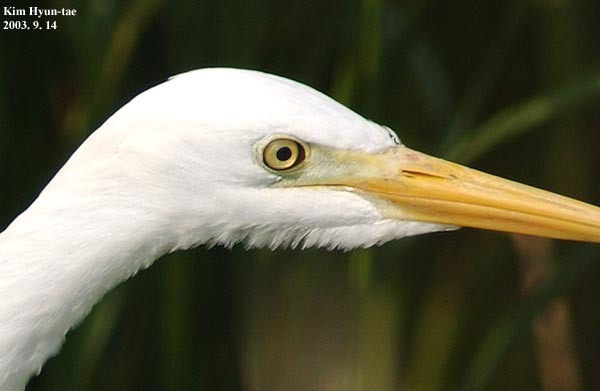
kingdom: Animalia
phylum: Chordata
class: Aves
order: Pelecaniformes
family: Ardeidae
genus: Egretta
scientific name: Egretta intermedia
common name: Intermediate egret
